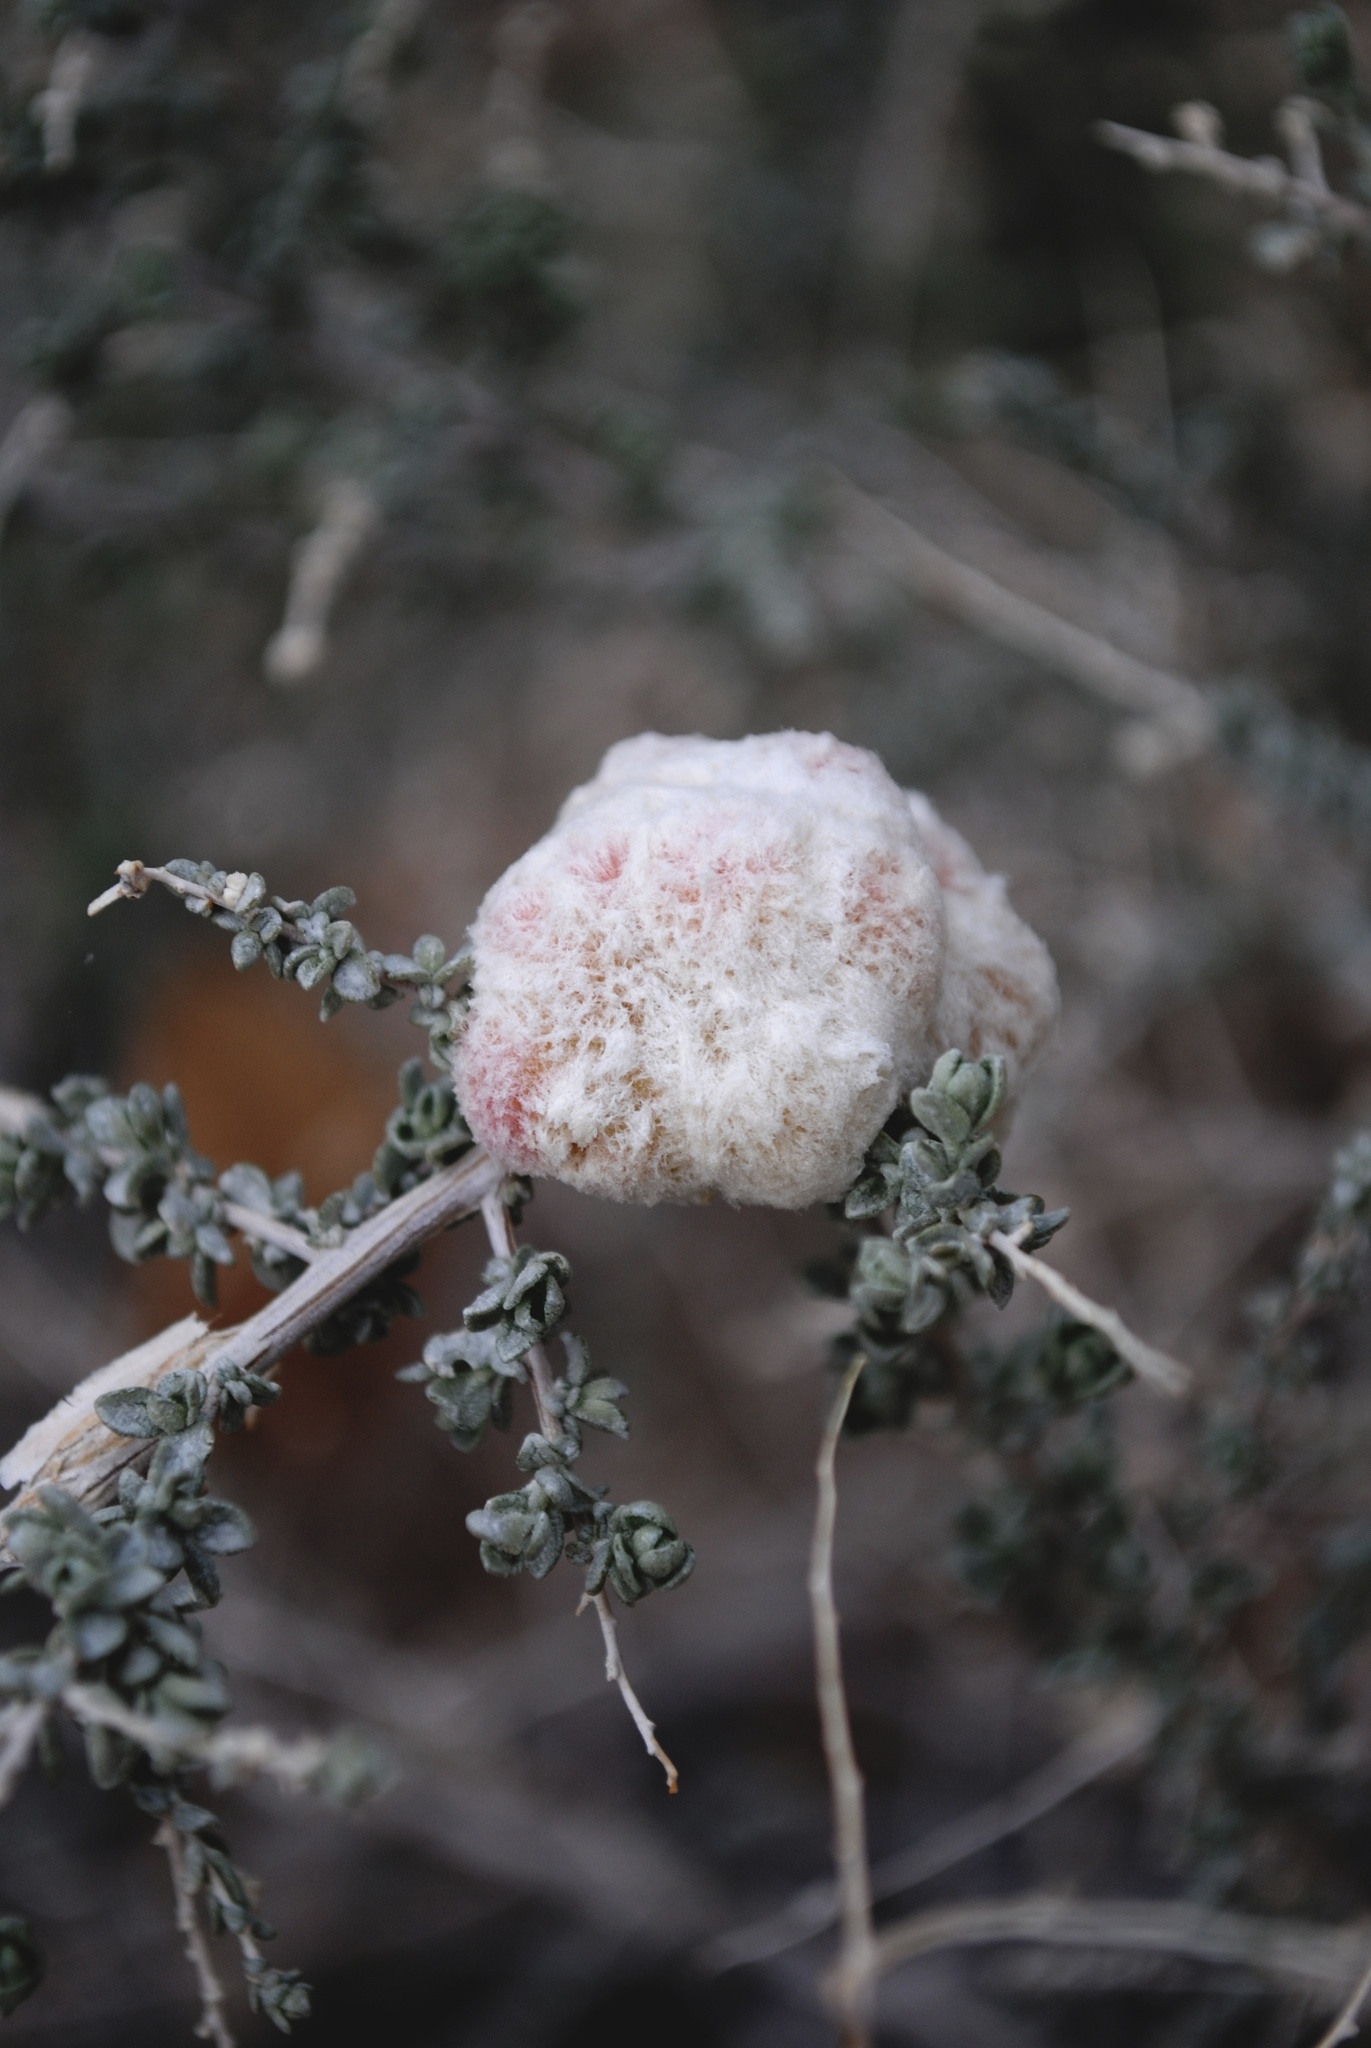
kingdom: Animalia
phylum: Arthropoda
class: Insecta
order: Diptera
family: Cecidomyiidae
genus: Asphondylia
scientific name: Asphondylia floccosa
